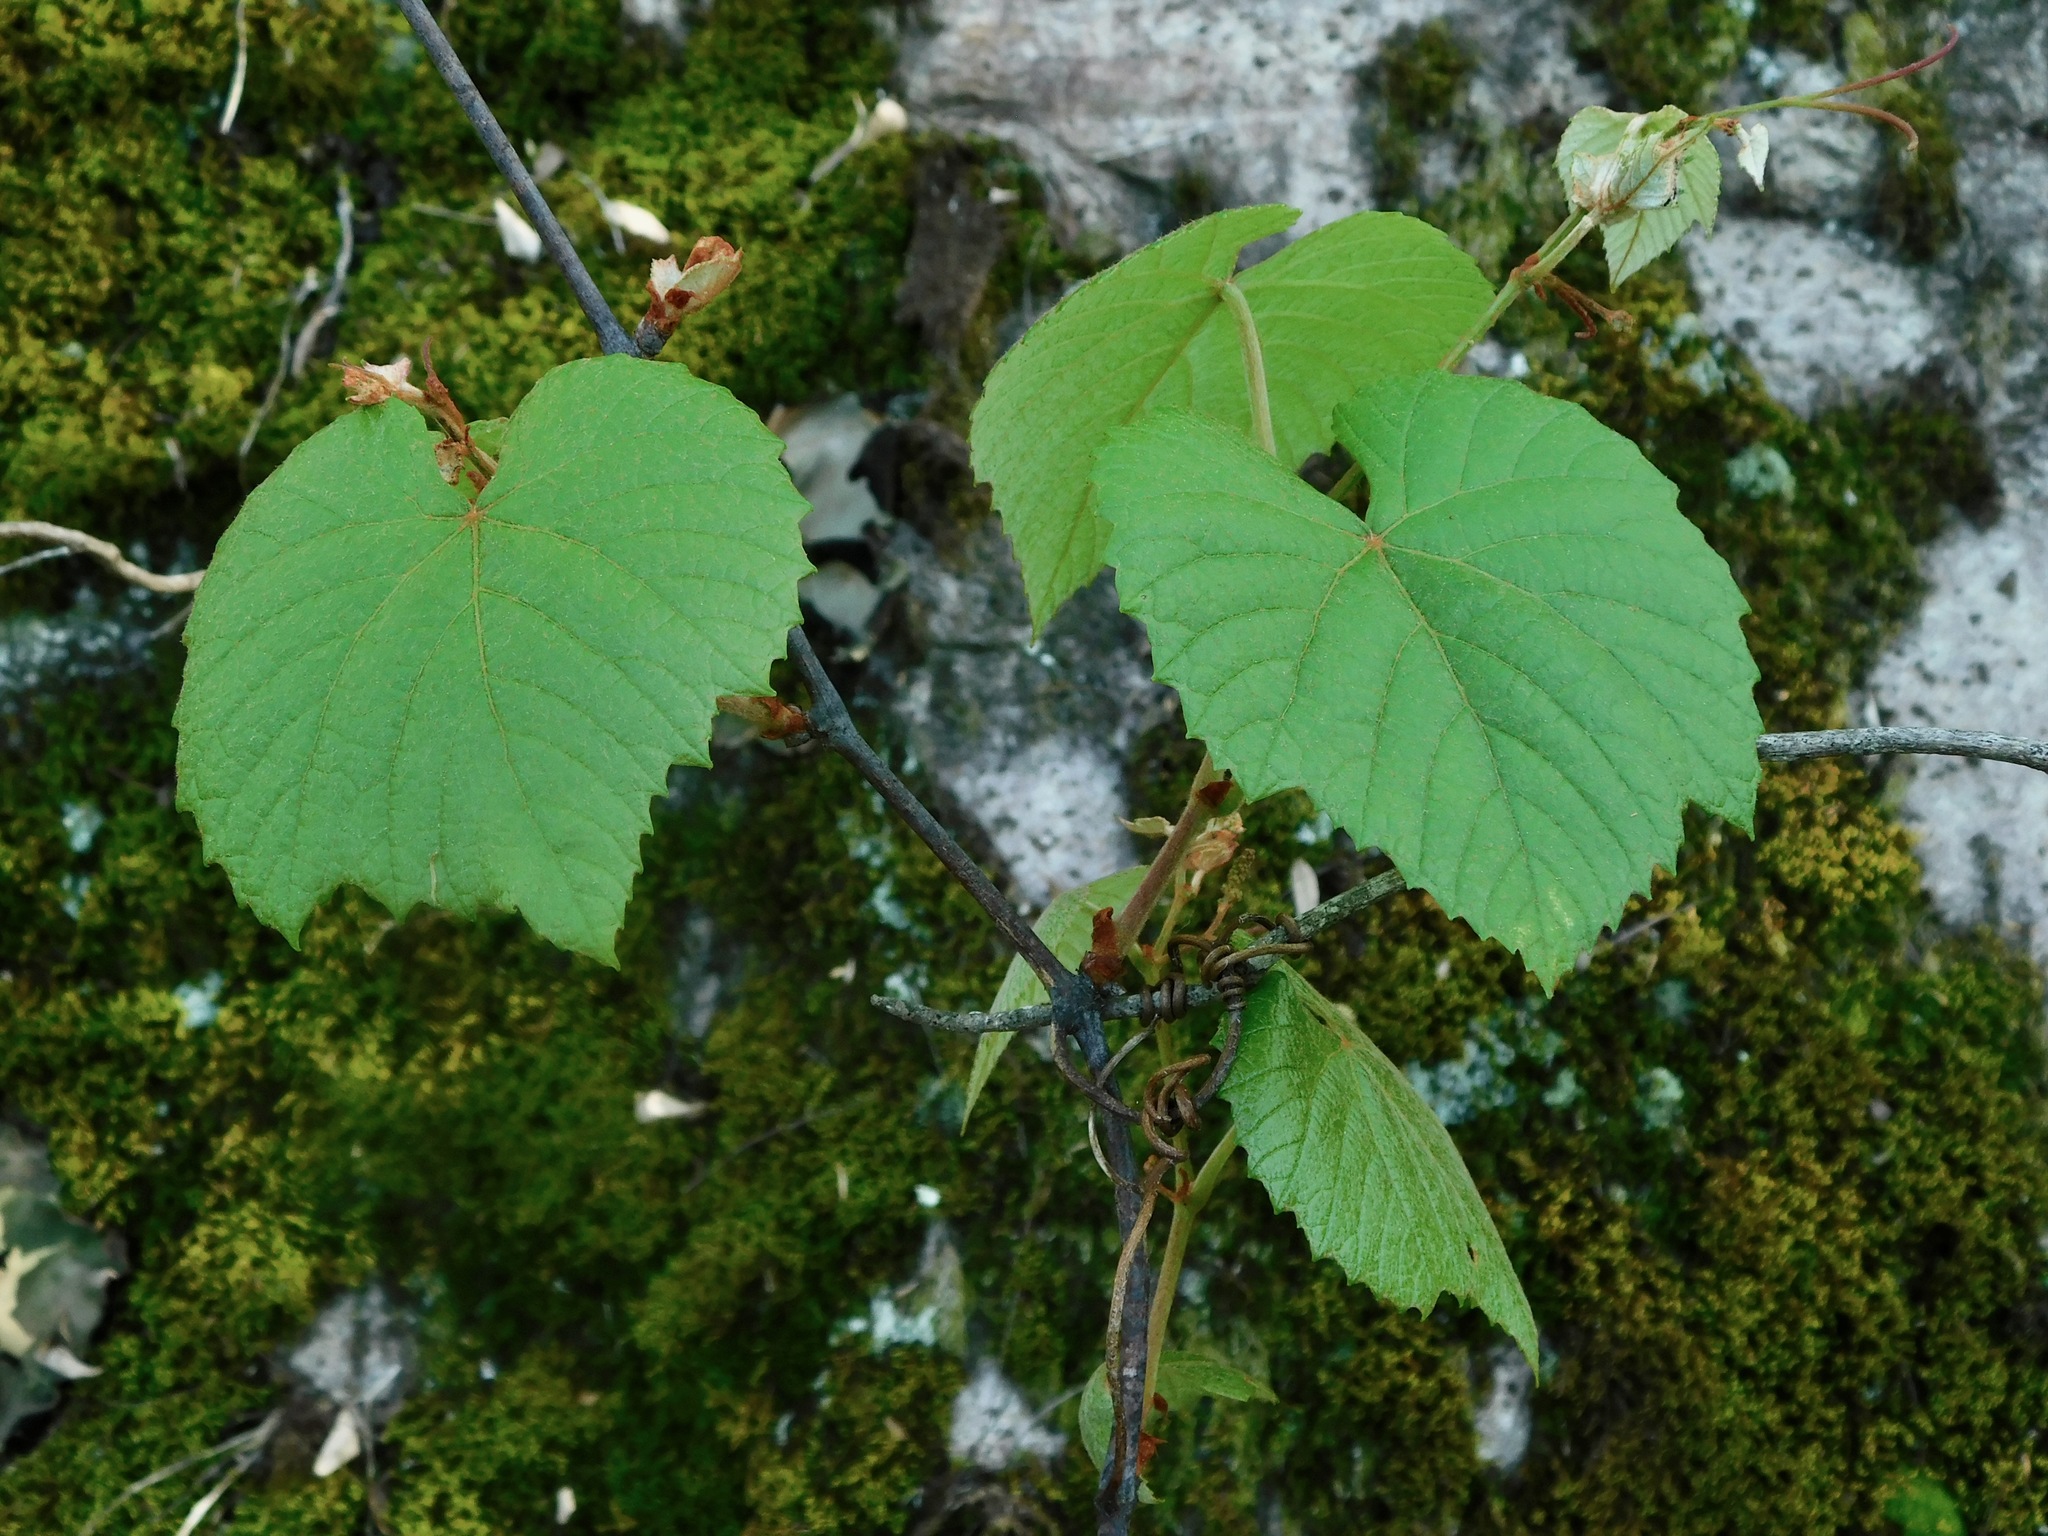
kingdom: Plantae
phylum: Tracheophyta
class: Magnoliopsida
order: Vitales
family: Vitaceae
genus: Vitis
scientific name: Vitis aestivalis
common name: Pigeon grape
